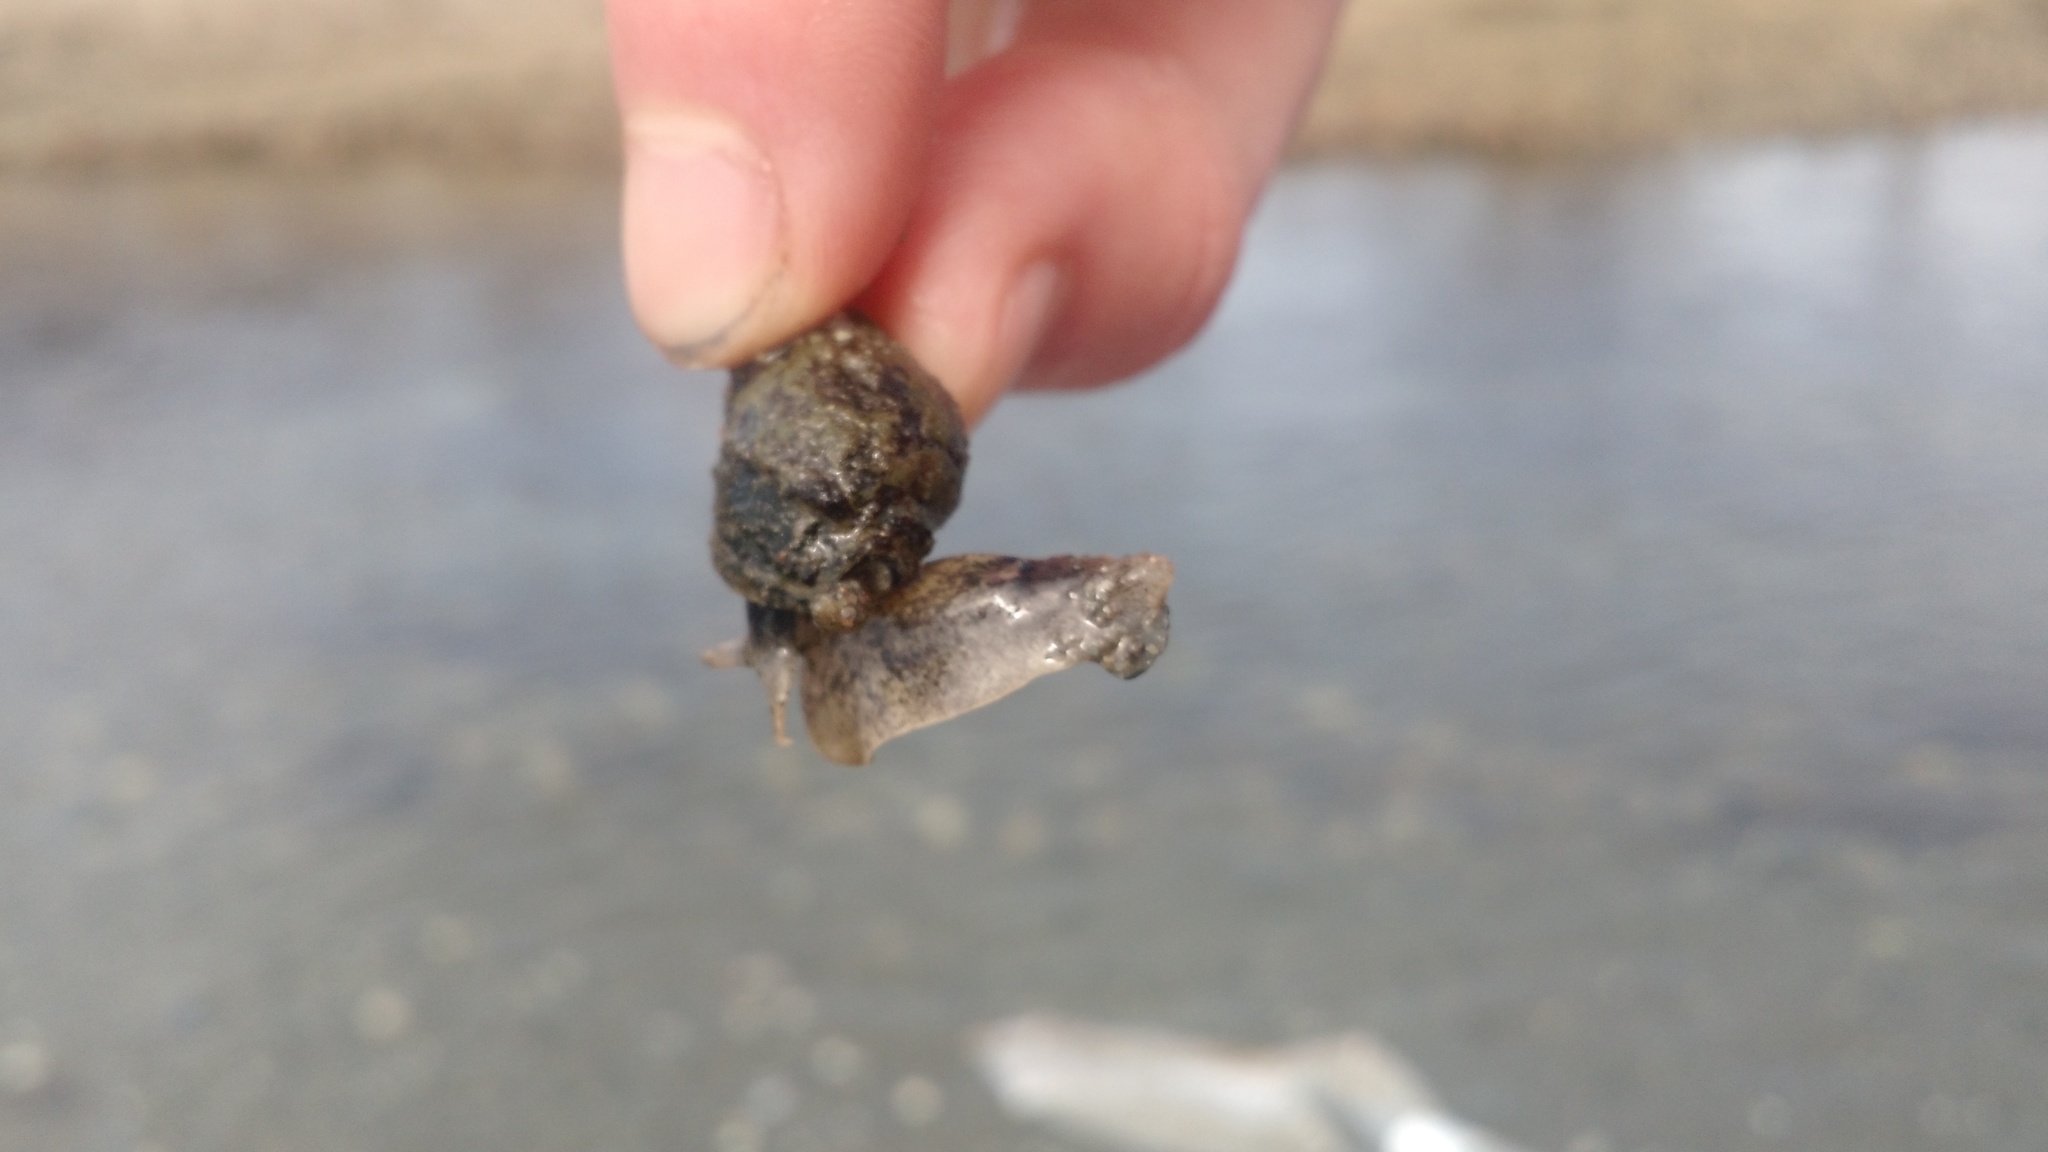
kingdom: Animalia
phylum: Mollusca
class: Gastropoda
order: Neogastropoda
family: Nassariidae
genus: Ilyanassa
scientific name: Ilyanassa obsoleta
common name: Eastern mudsnail
